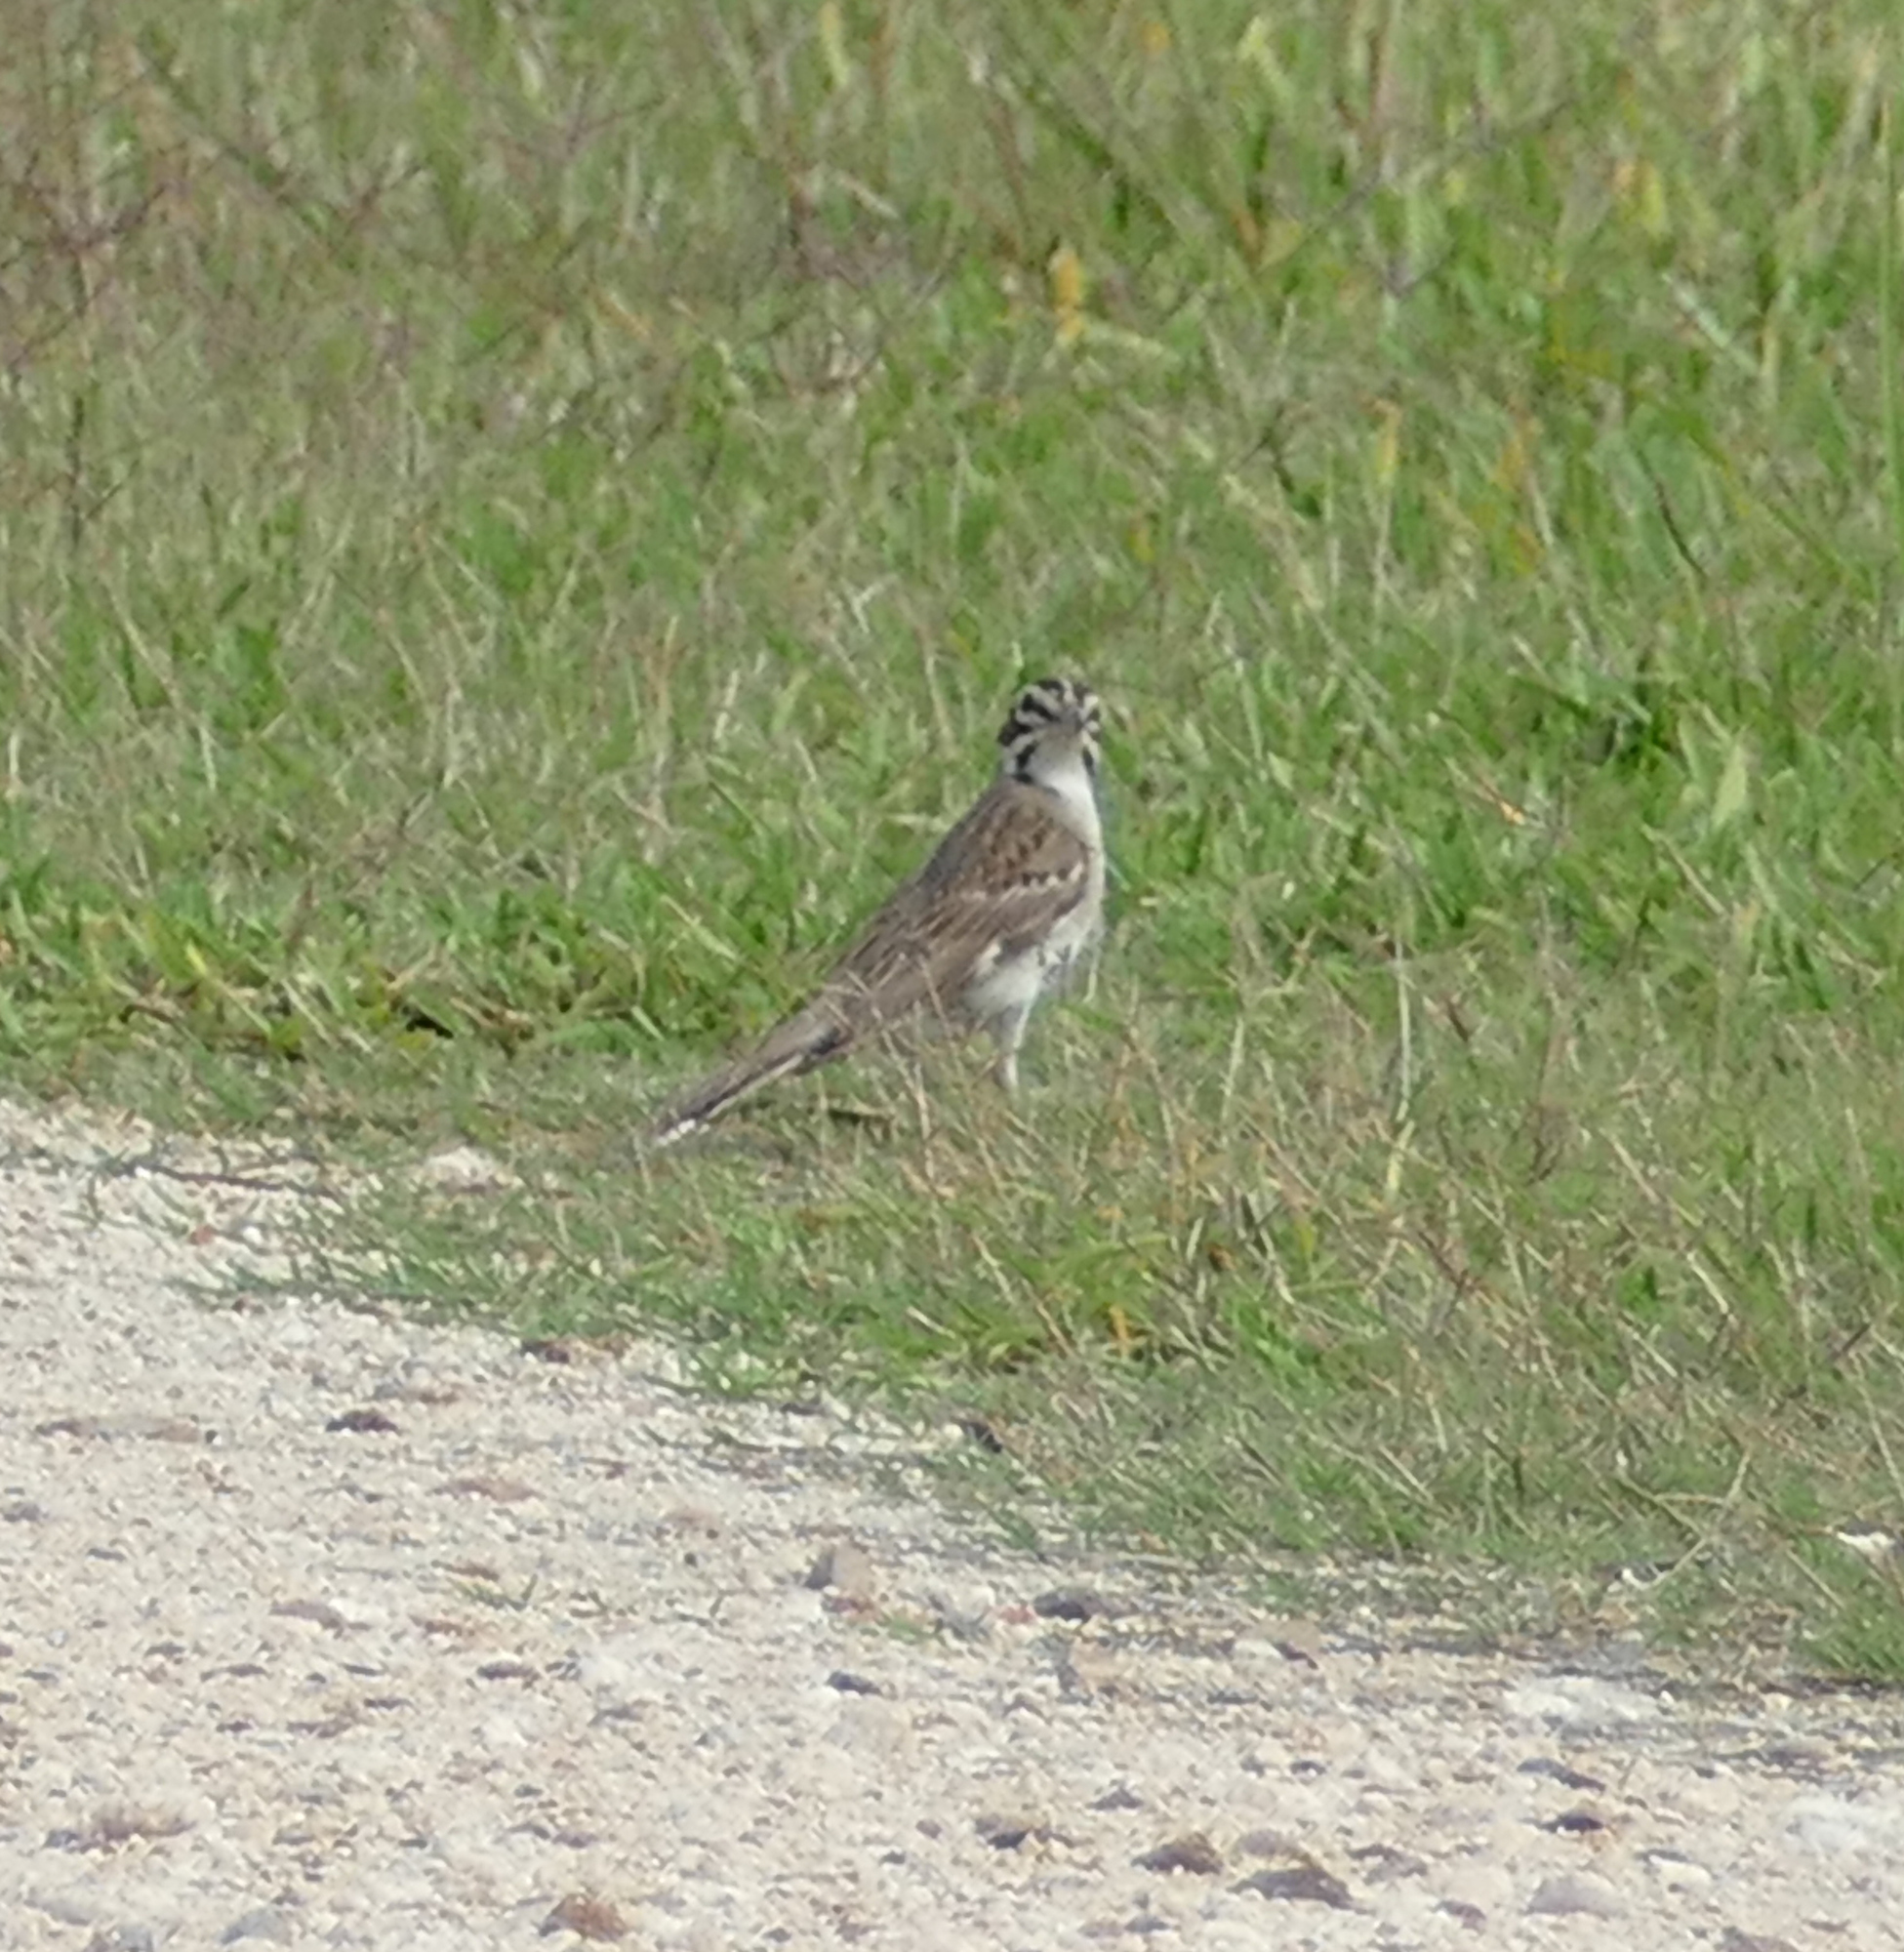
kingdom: Animalia
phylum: Chordata
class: Aves
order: Passeriformes
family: Passerellidae
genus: Chondestes
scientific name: Chondestes grammacus
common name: Lark sparrow
